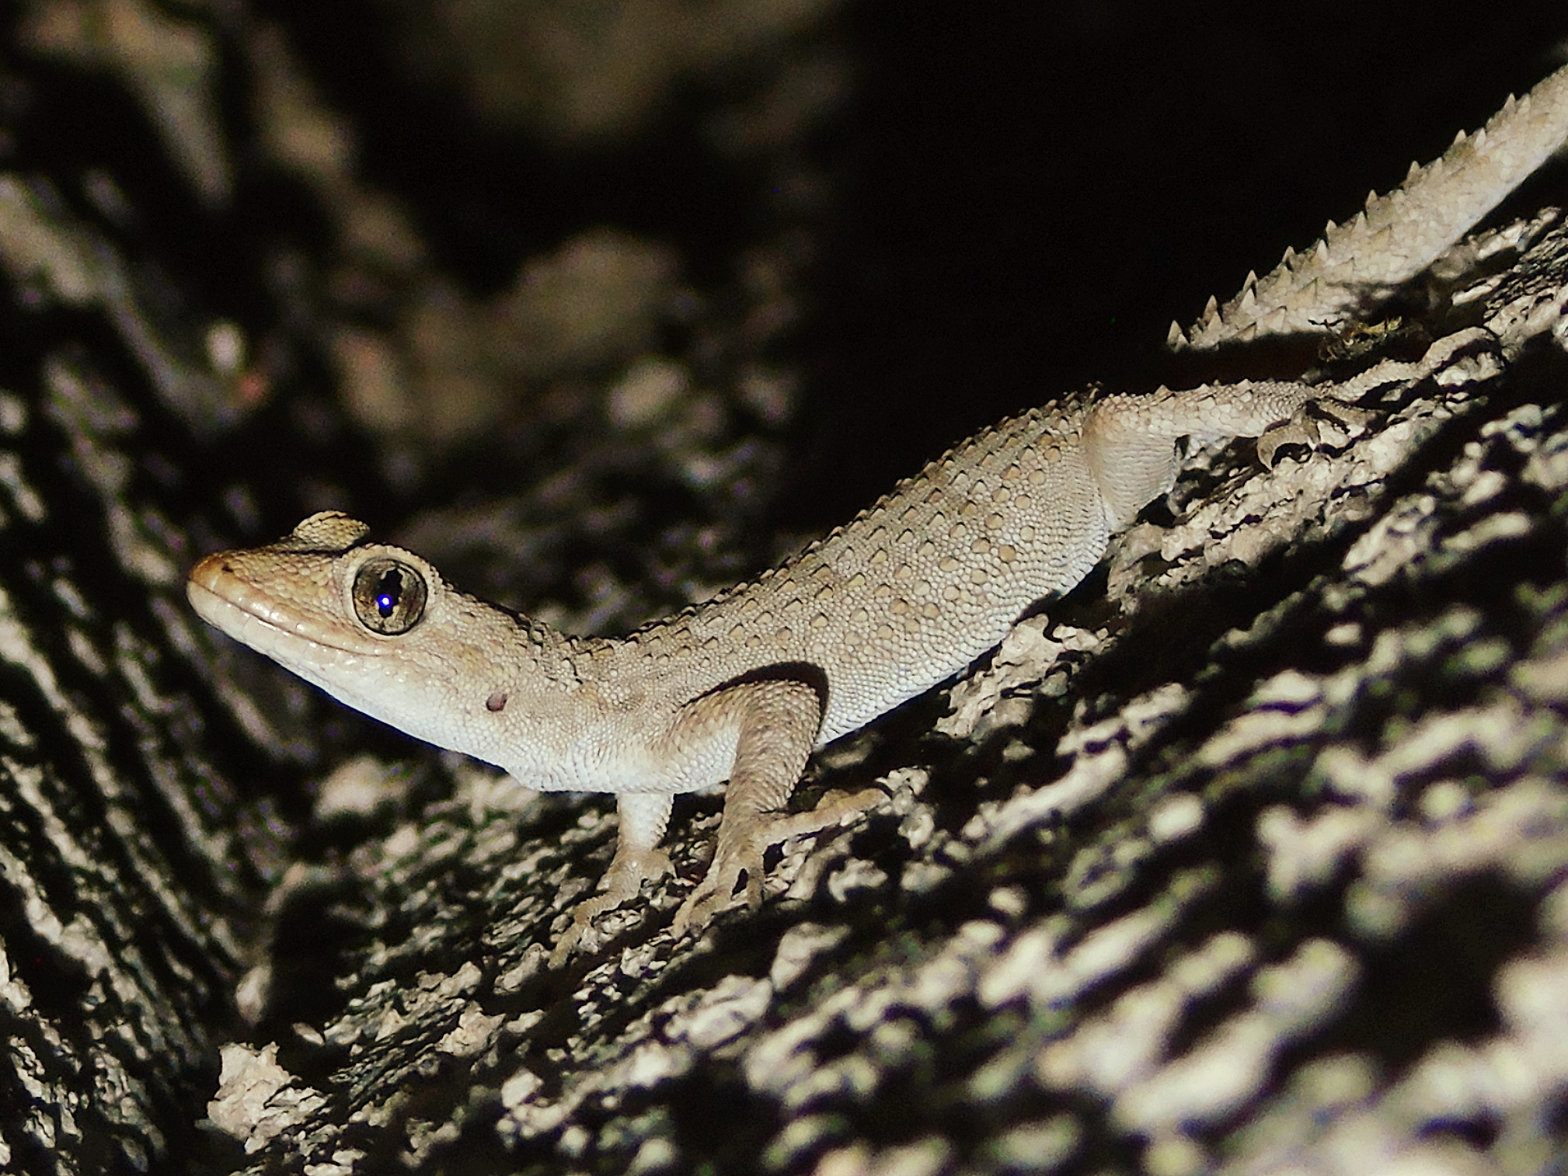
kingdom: Animalia
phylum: Chordata
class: Squamata
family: Gekkonidae
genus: Mediodactylus
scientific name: Mediodactylus kotschyi
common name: Kotschy's gecko
